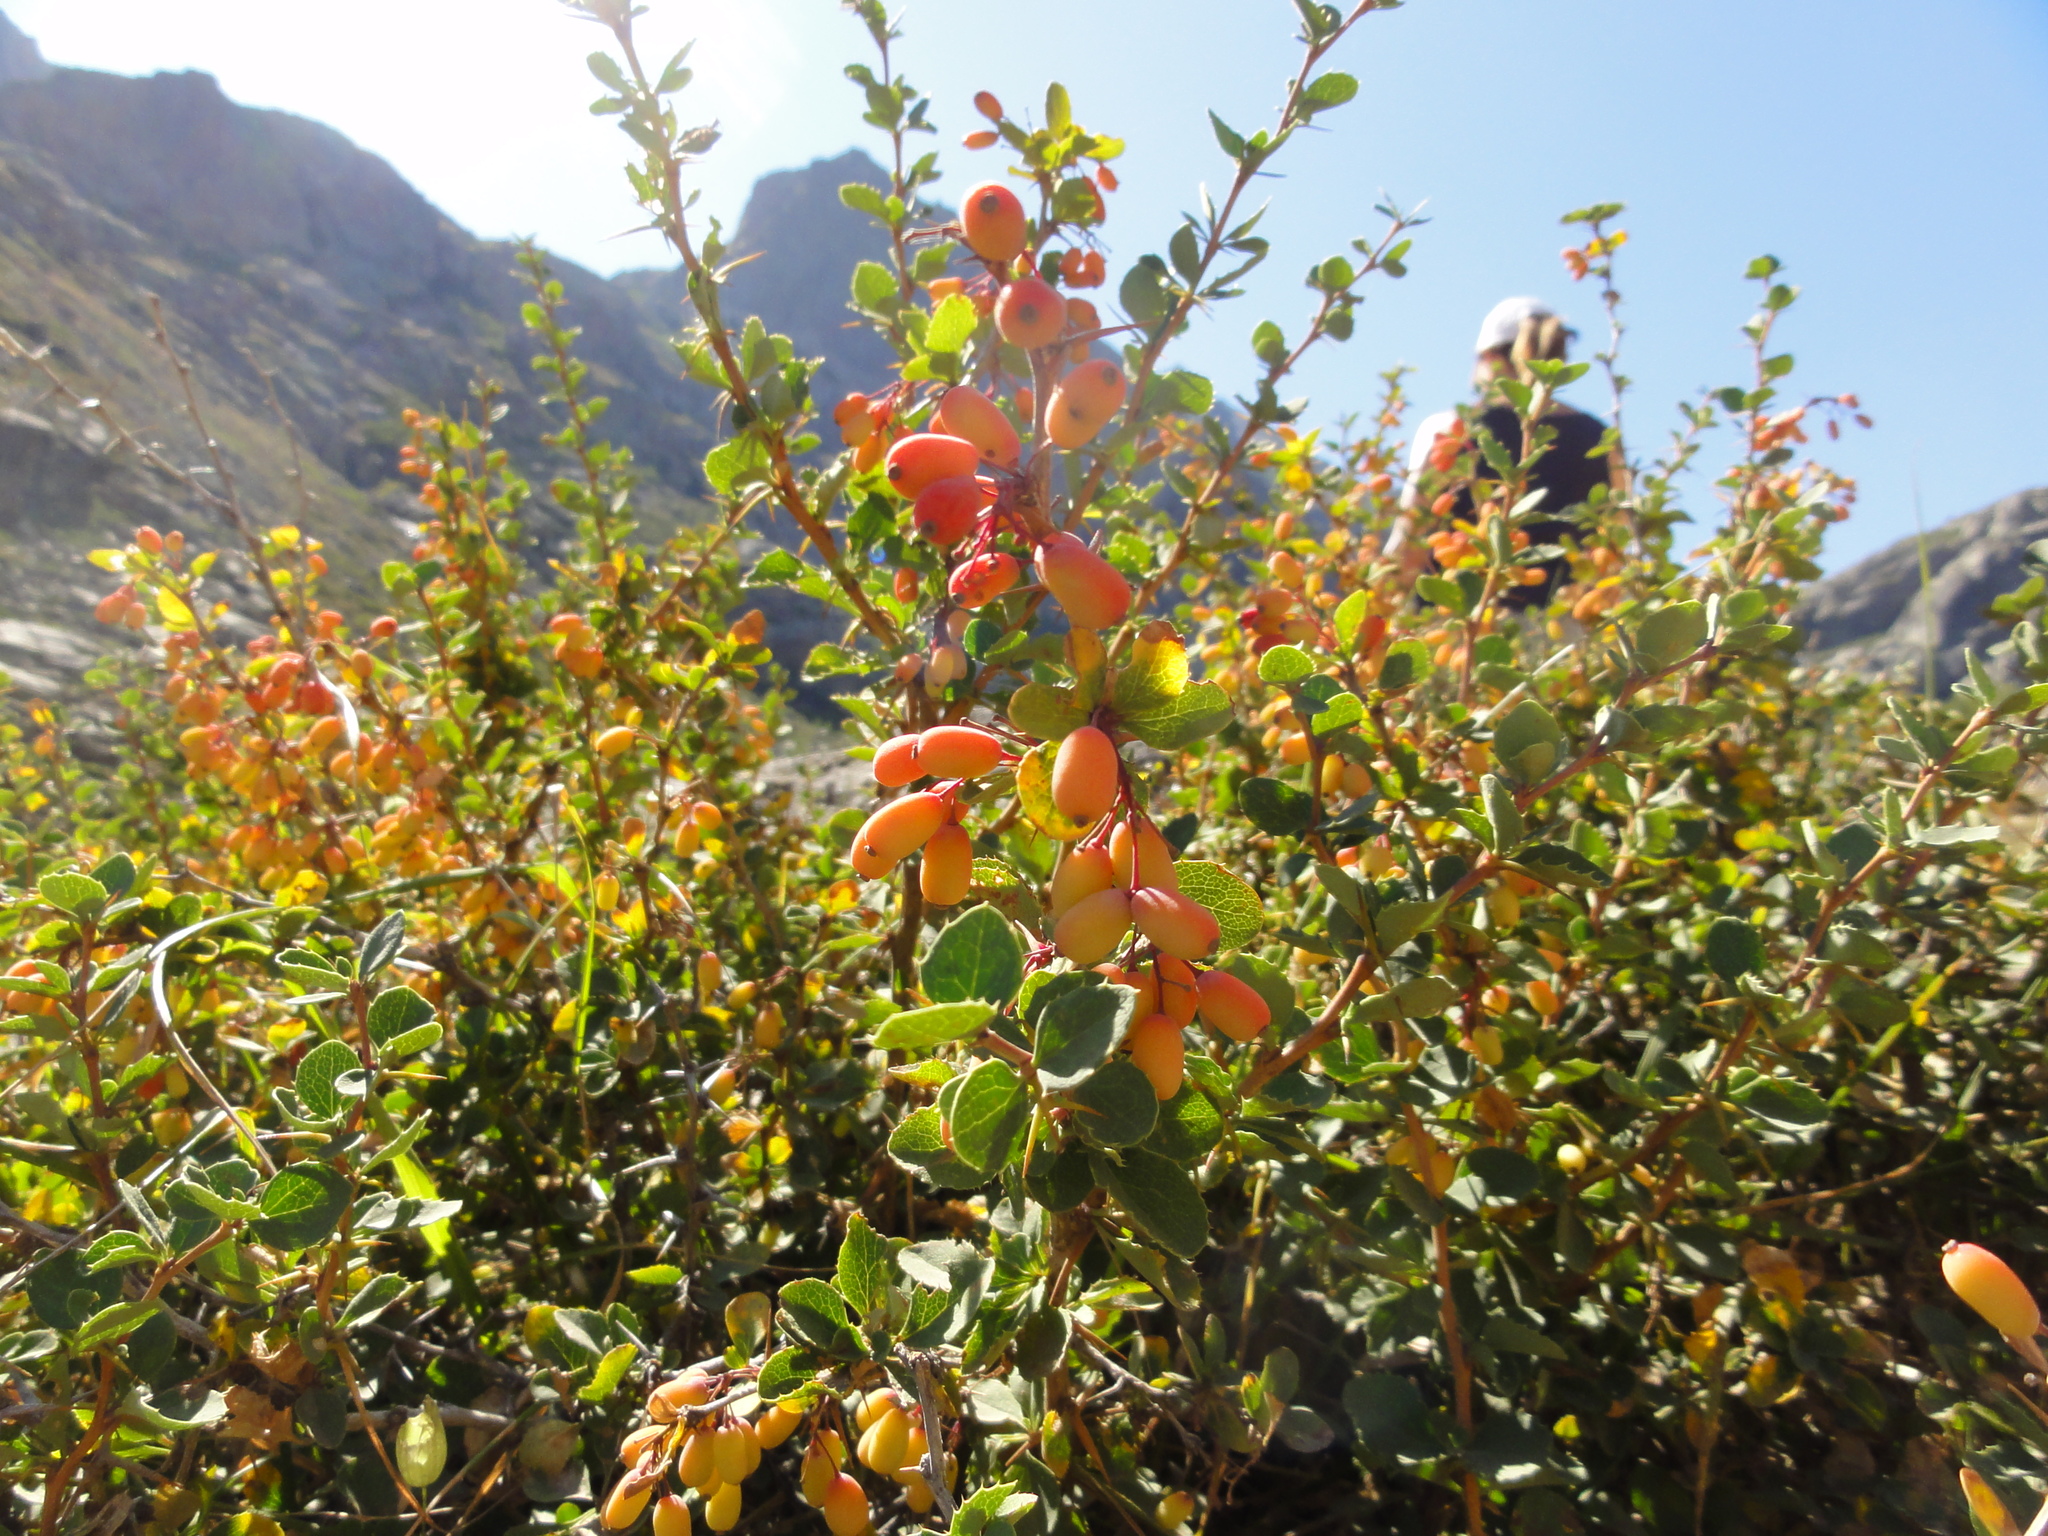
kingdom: Plantae
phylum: Tracheophyta
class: Magnoliopsida
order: Ranunculales
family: Berberidaceae
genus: Berberis
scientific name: Berberis aetnensis
